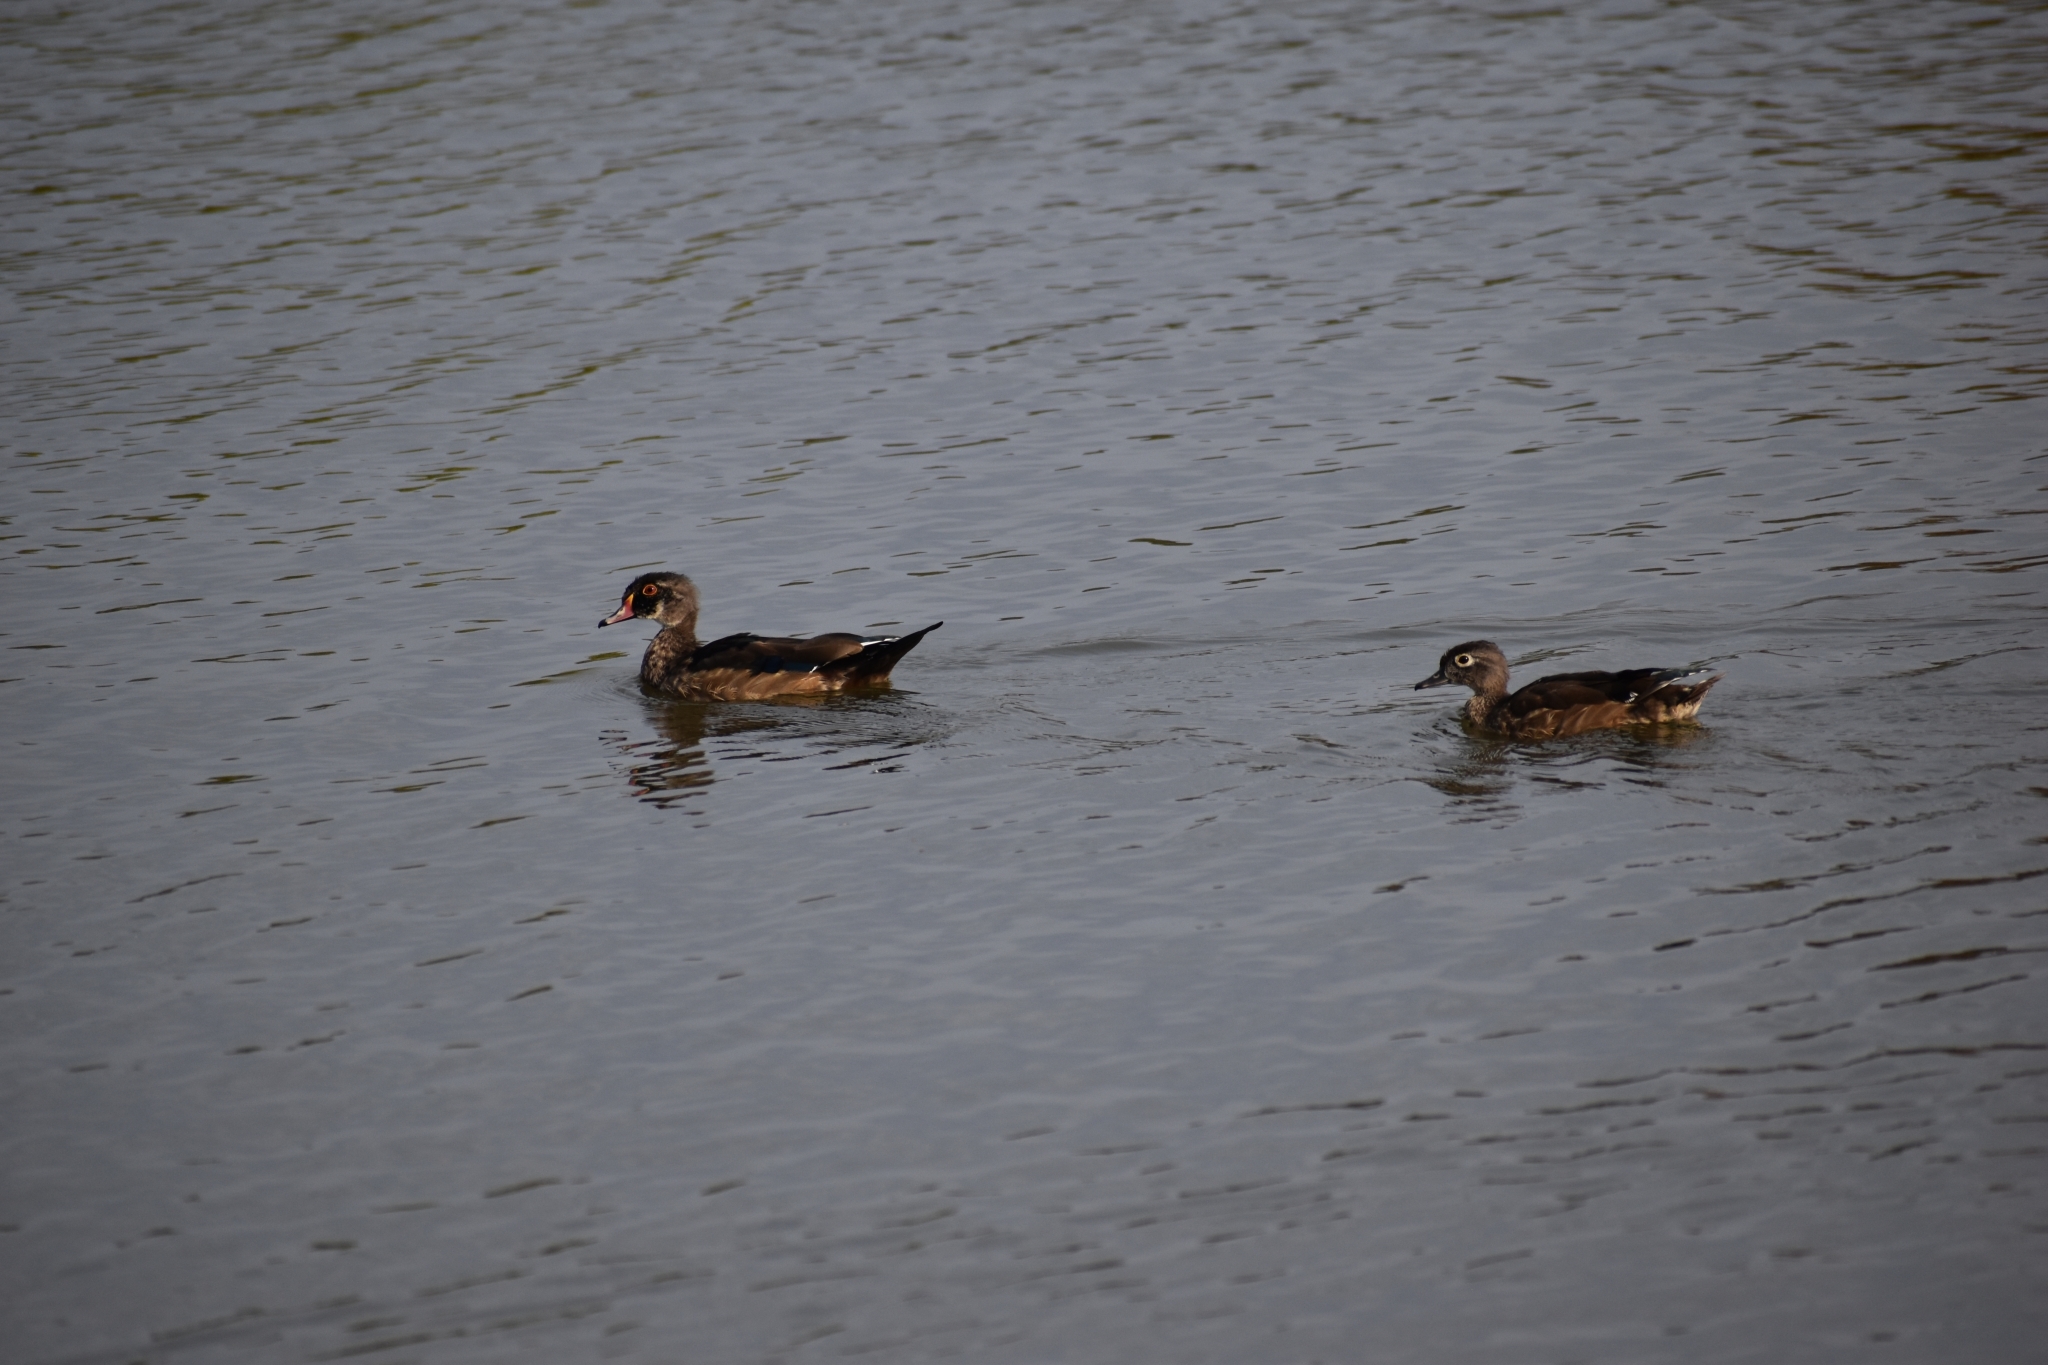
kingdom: Animalia
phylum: Chordata
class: Aves
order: Anseriformes
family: Anatidae
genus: Aix
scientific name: Aix sponsa
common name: Wood duck
